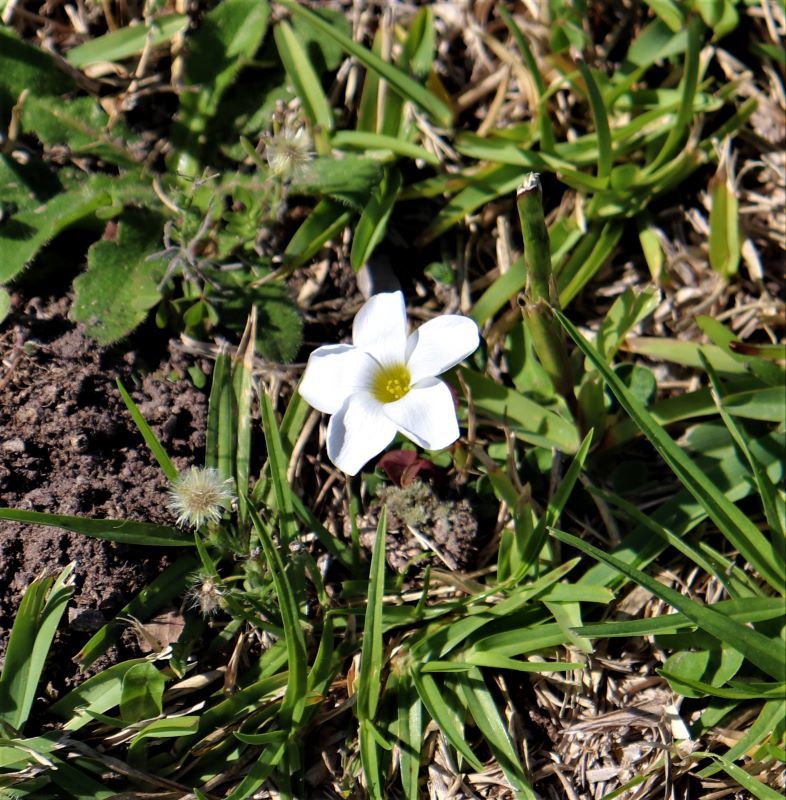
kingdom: Plantae
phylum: Tracheophyta
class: Magnoliopsida
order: Oxalidales
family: Oxalidaceae
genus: Oxalis
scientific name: Oxalis depressa
